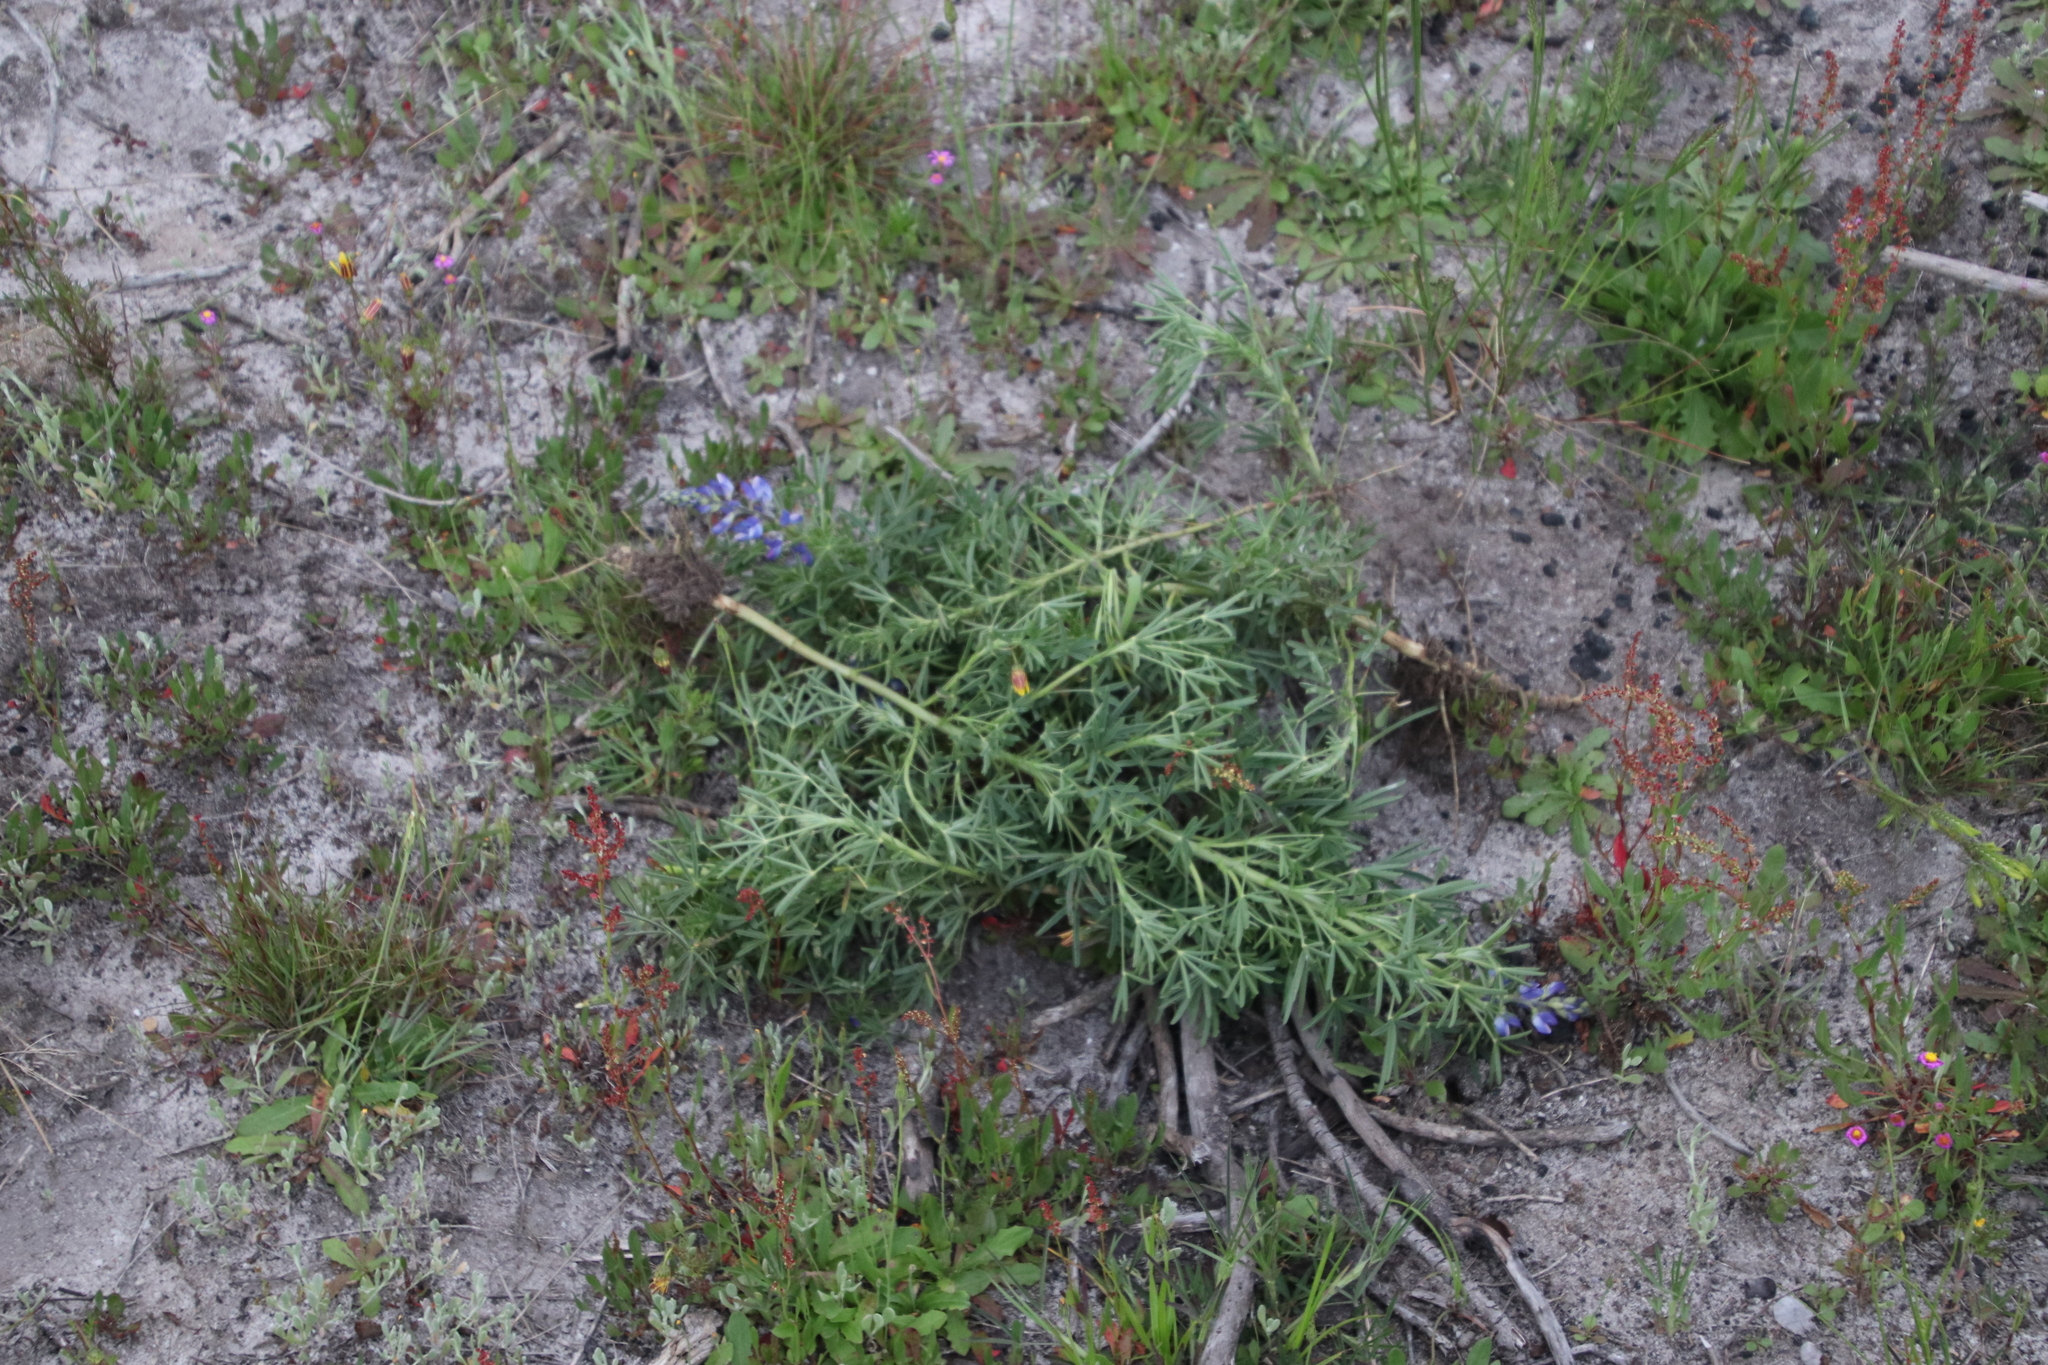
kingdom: Plantae
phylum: Tracheophyta
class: Magnoliopsida
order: Fabales
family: Fabaceae
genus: Lupinus
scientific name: Lupinus angustifolius
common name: Narrow-leaved lupin
